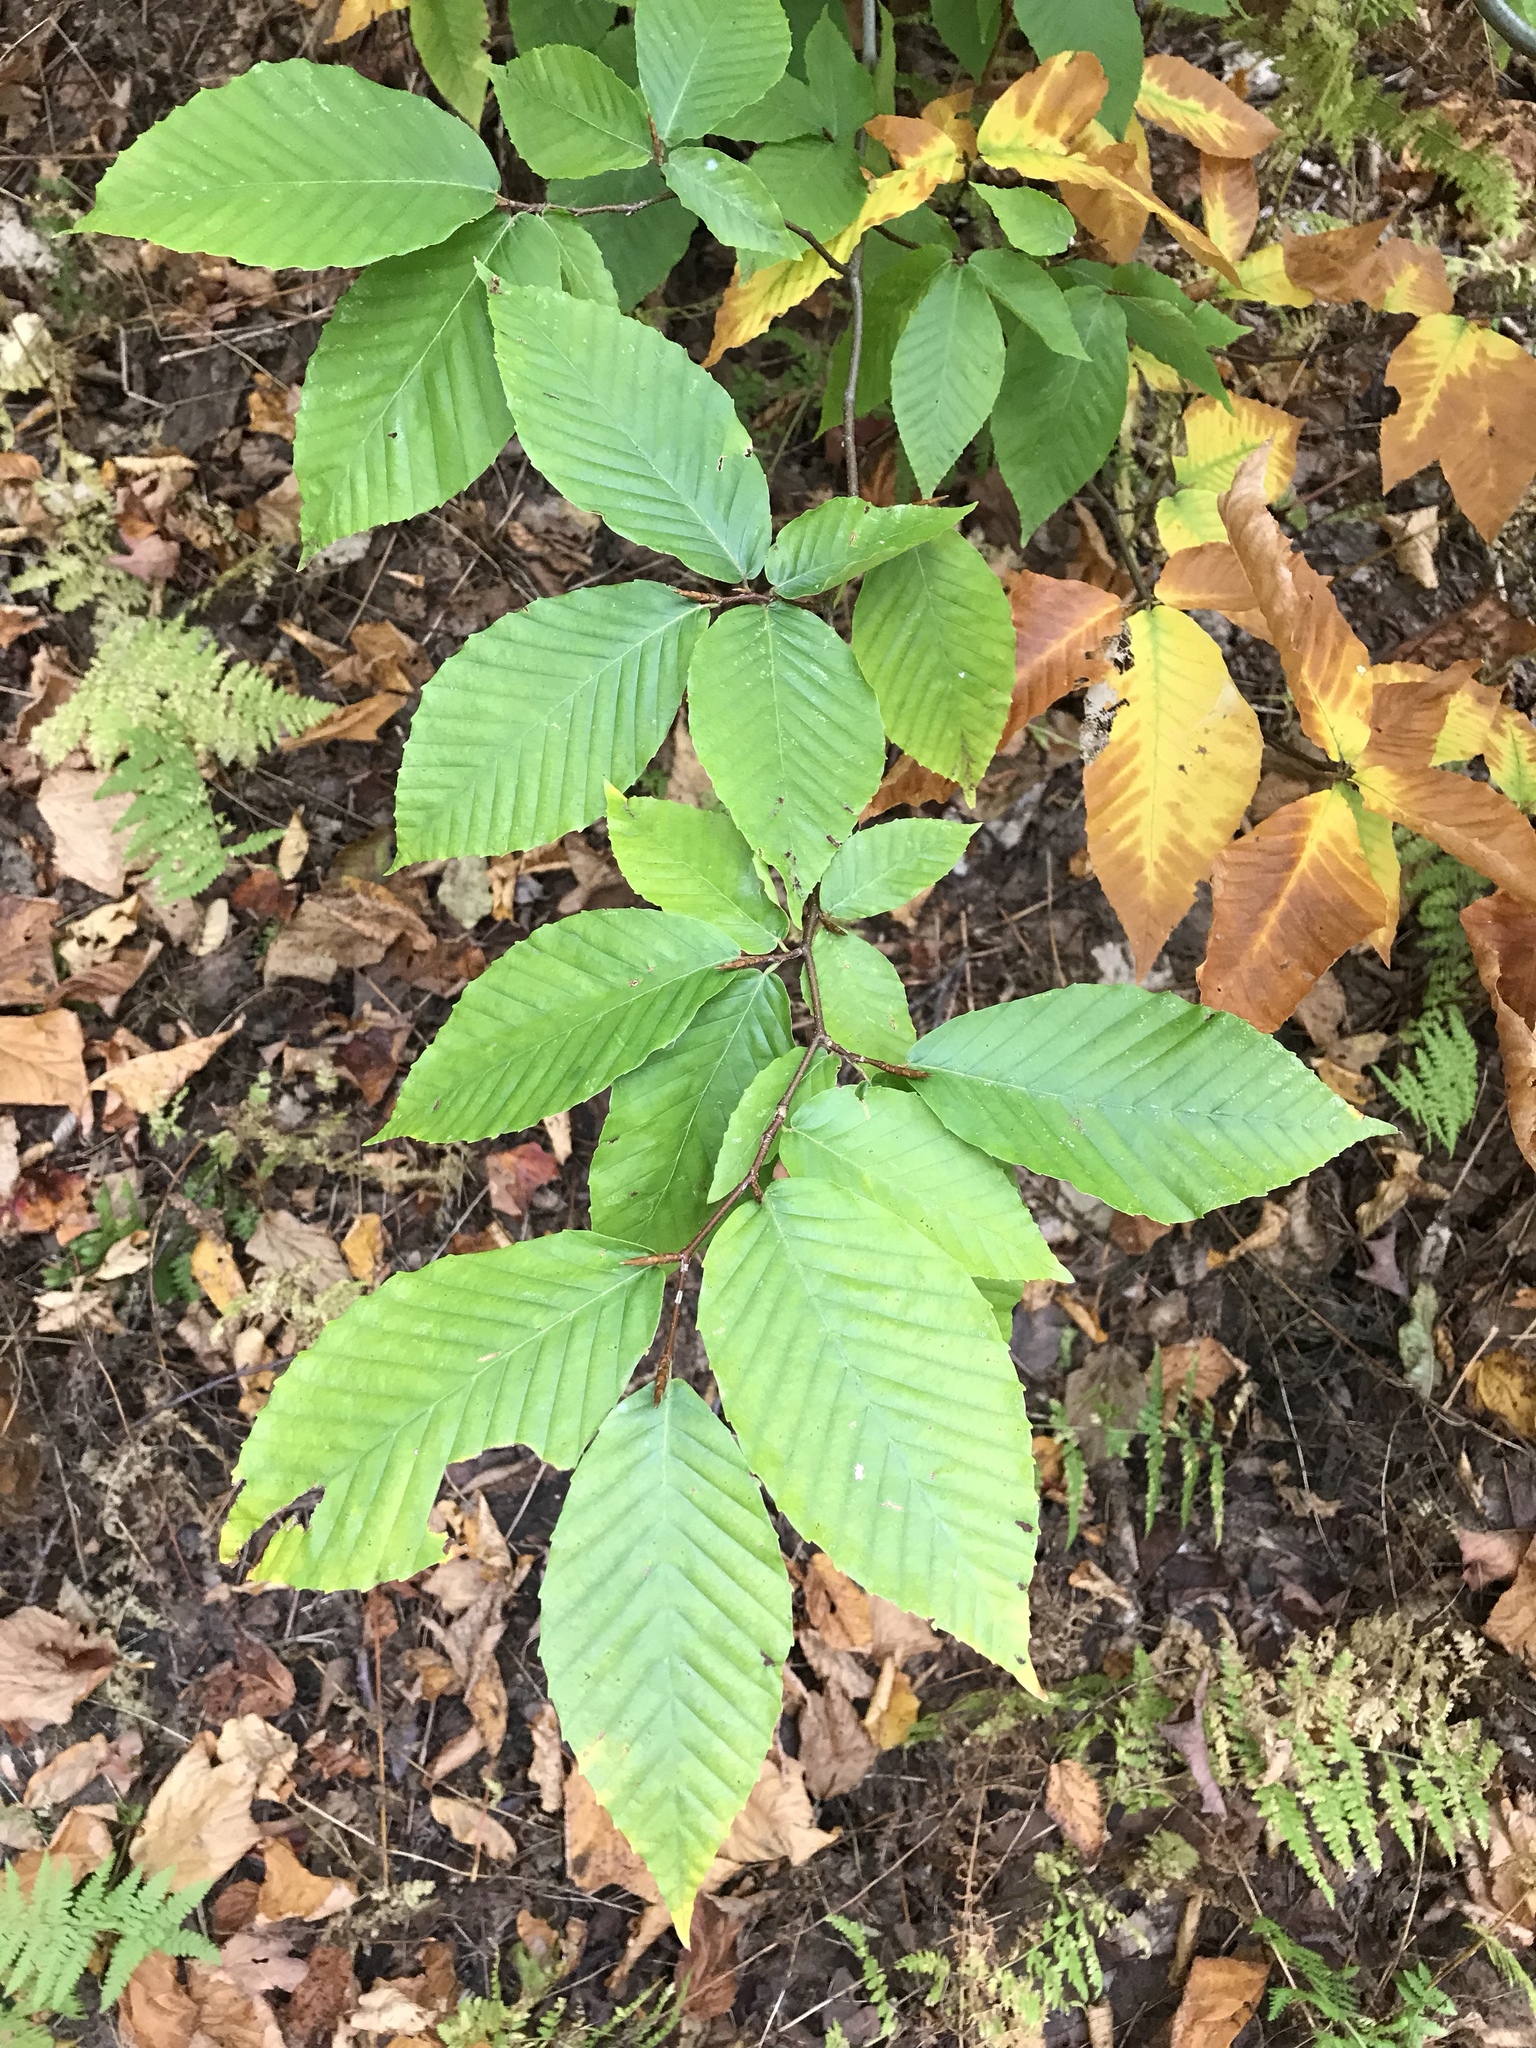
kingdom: Plantae
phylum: Tracheophyta
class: Magnoliopsida
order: Fagales
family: Fagaceae
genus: Fagus
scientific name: Fagus grandifolia
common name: American beech
